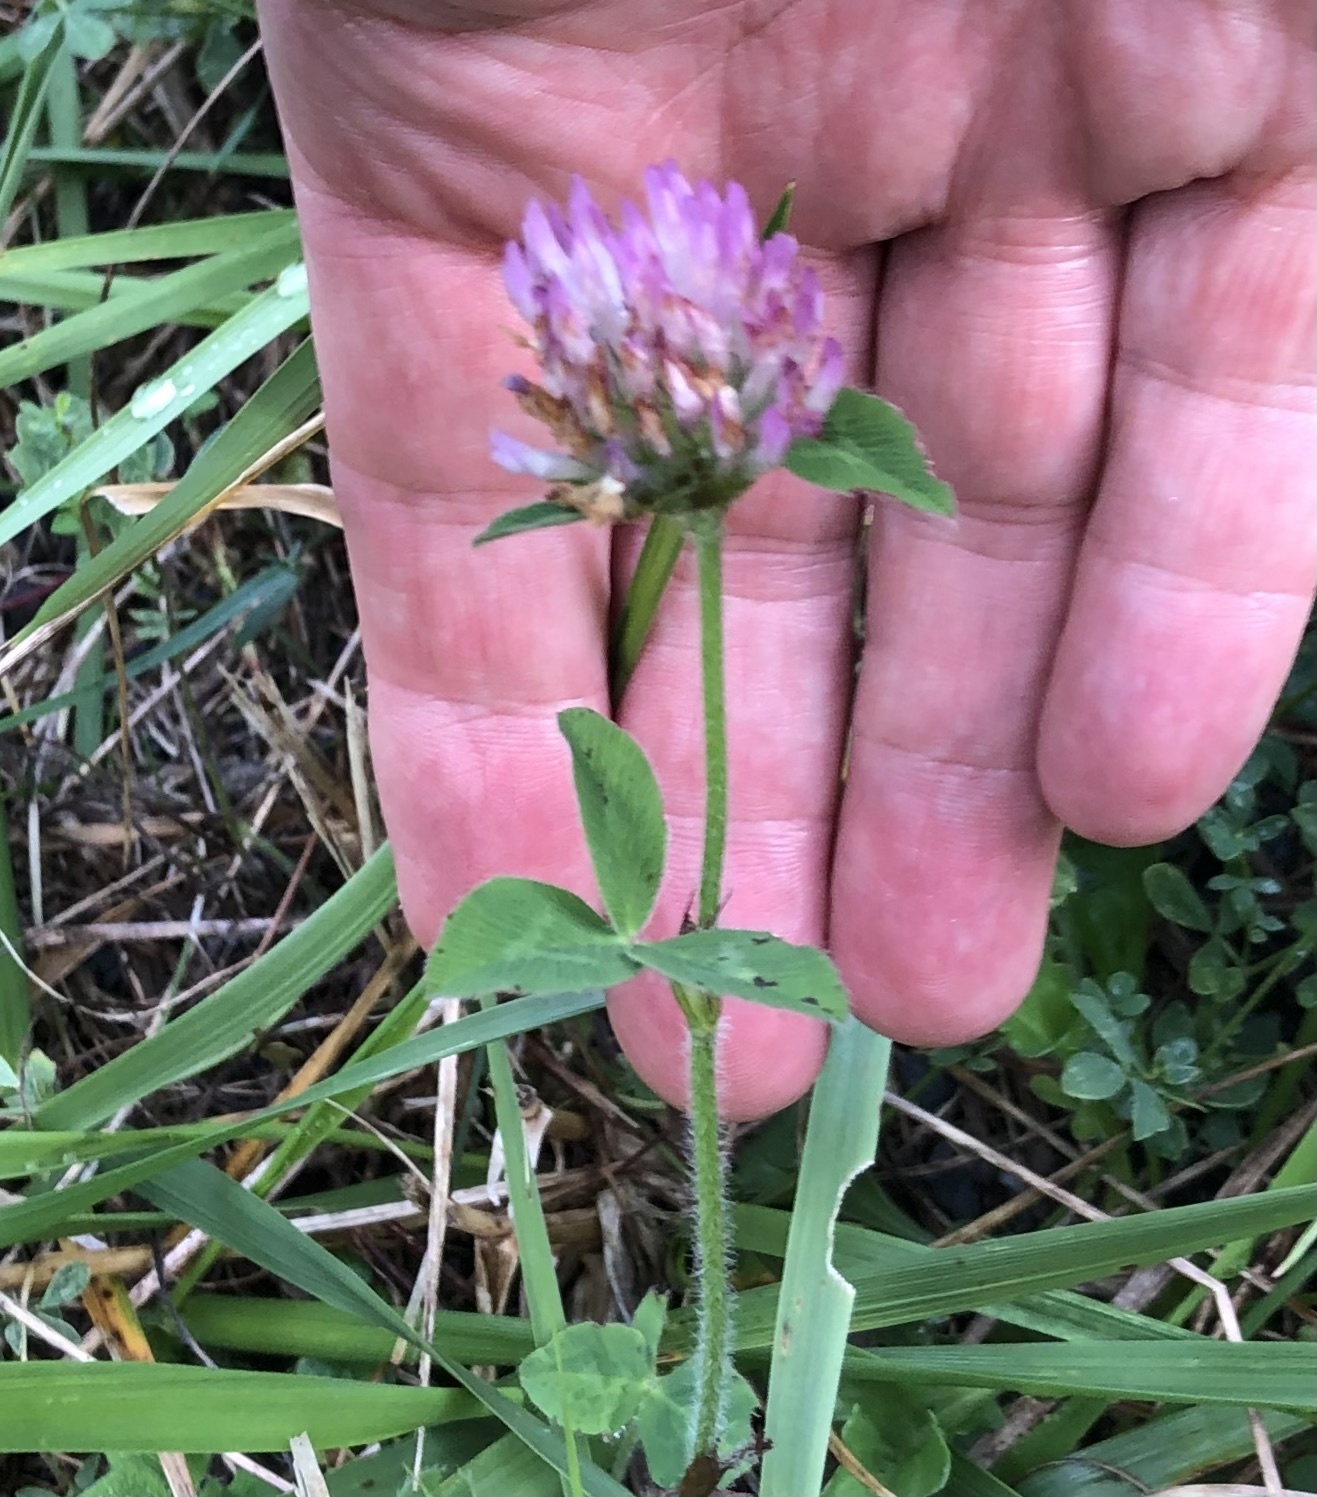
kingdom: Plantae
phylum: Tracheophyta
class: Magnoliopsida
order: Fabales
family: Fabaceae
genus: Trifolium
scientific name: Trifolium pratense
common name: Red clover
